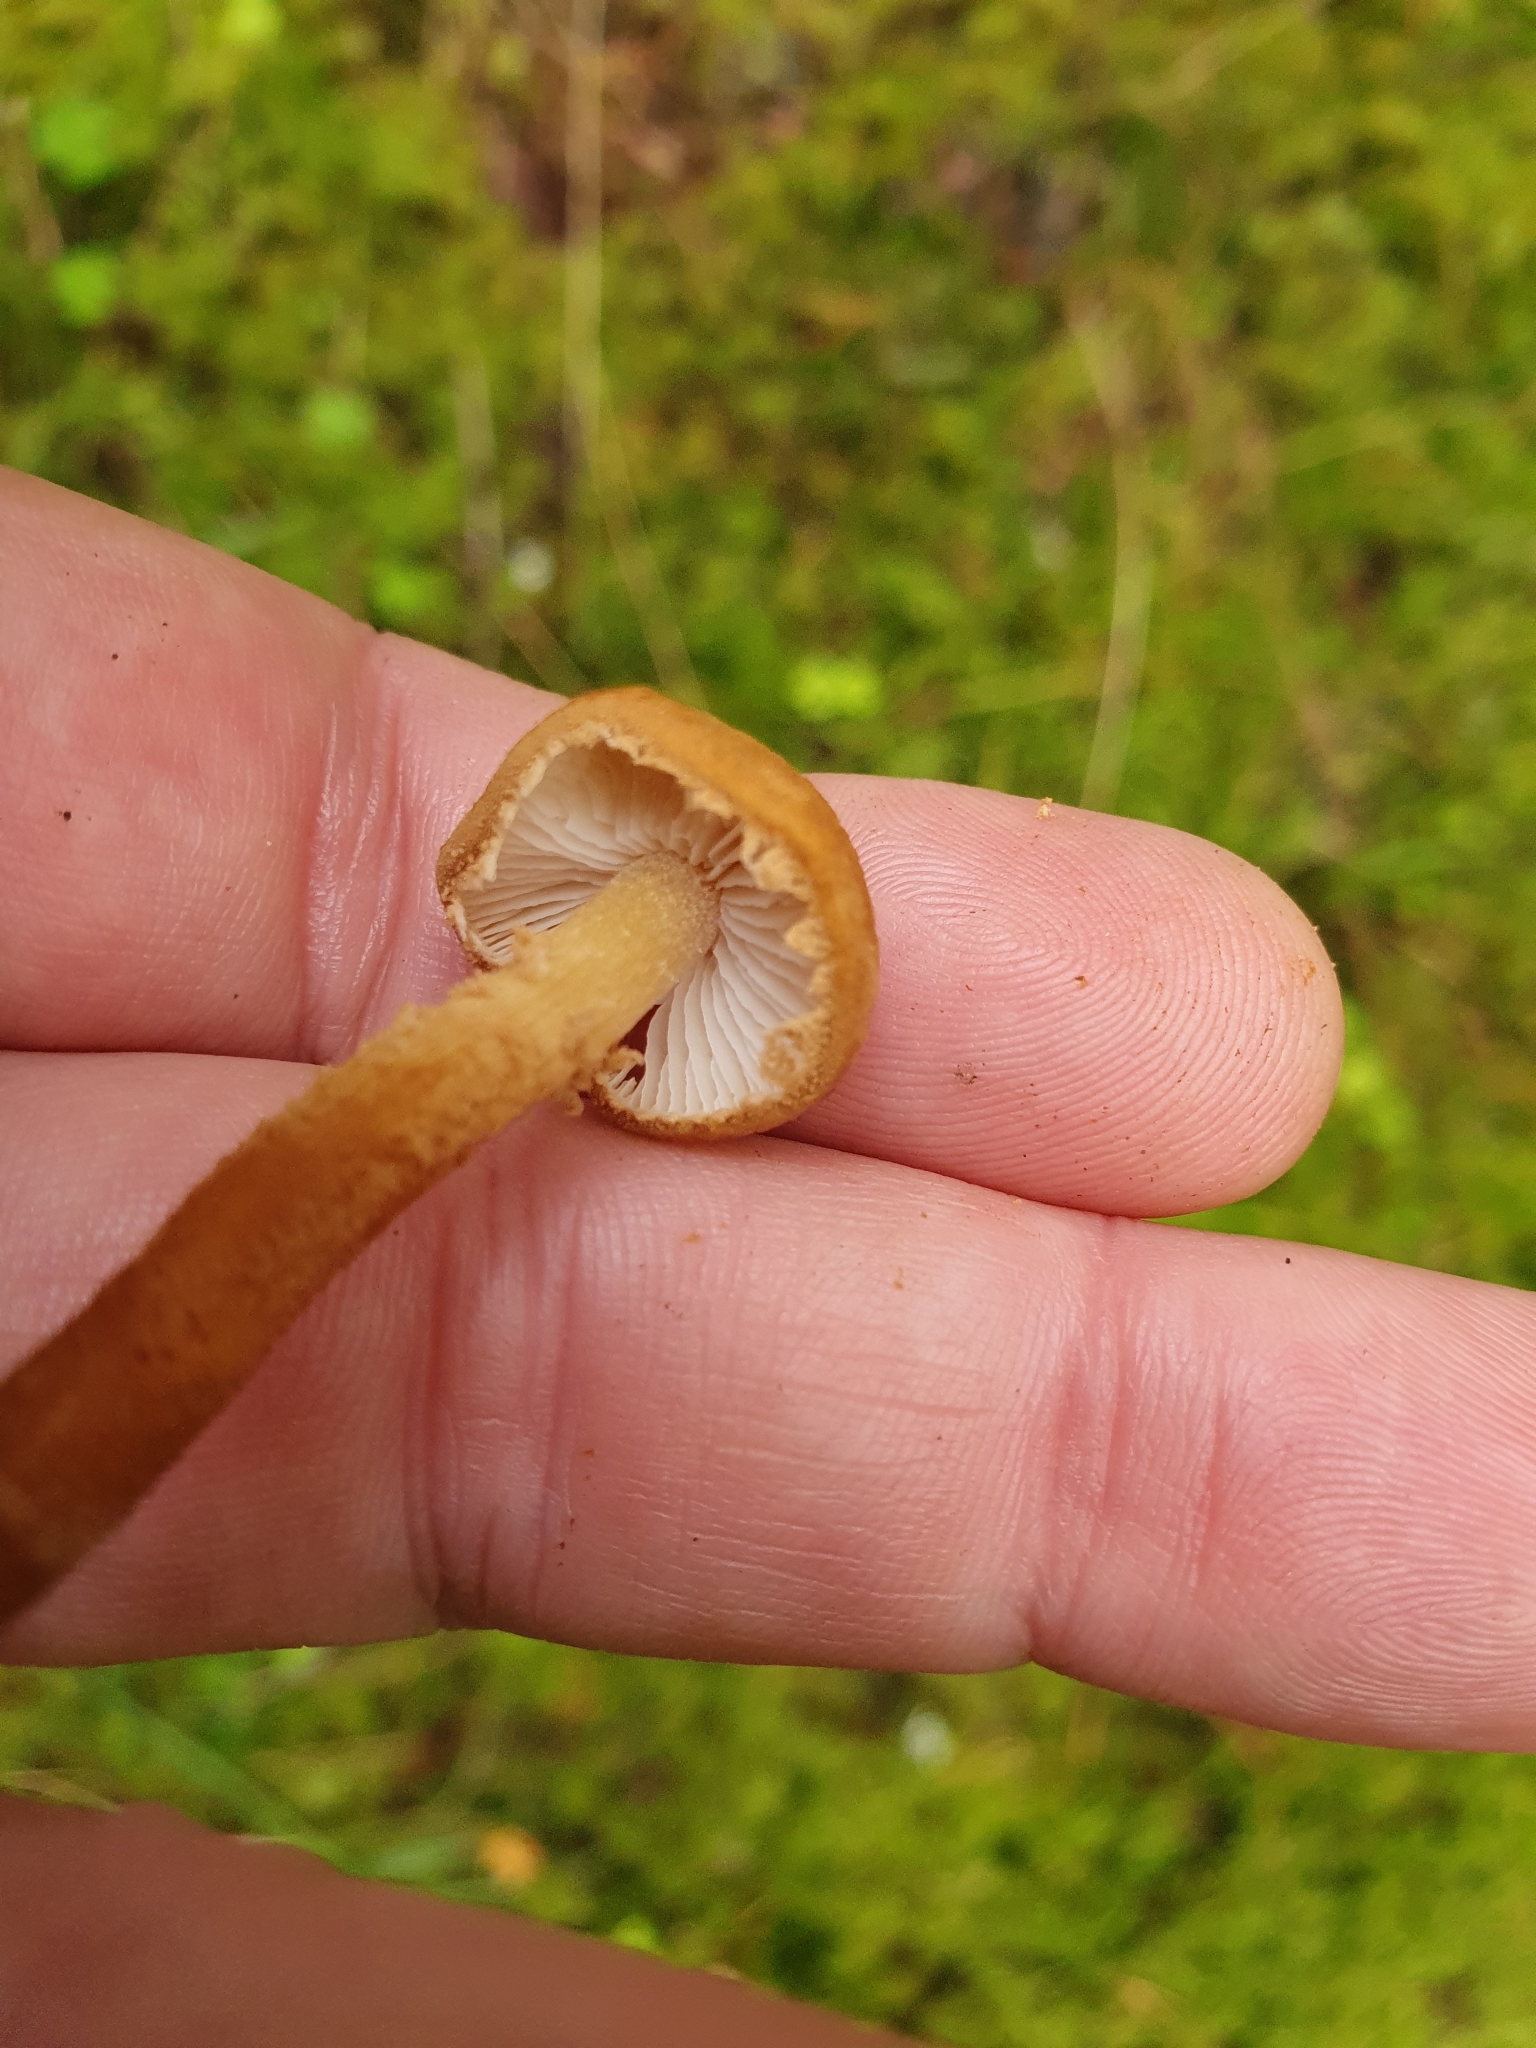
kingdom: Fungi
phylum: Basidiomycota
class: Agaricomycetes
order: Agaricales
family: Tricholomataceae
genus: Cystoderma
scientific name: Cystoderma amianthinum
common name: Earthy powdercap
